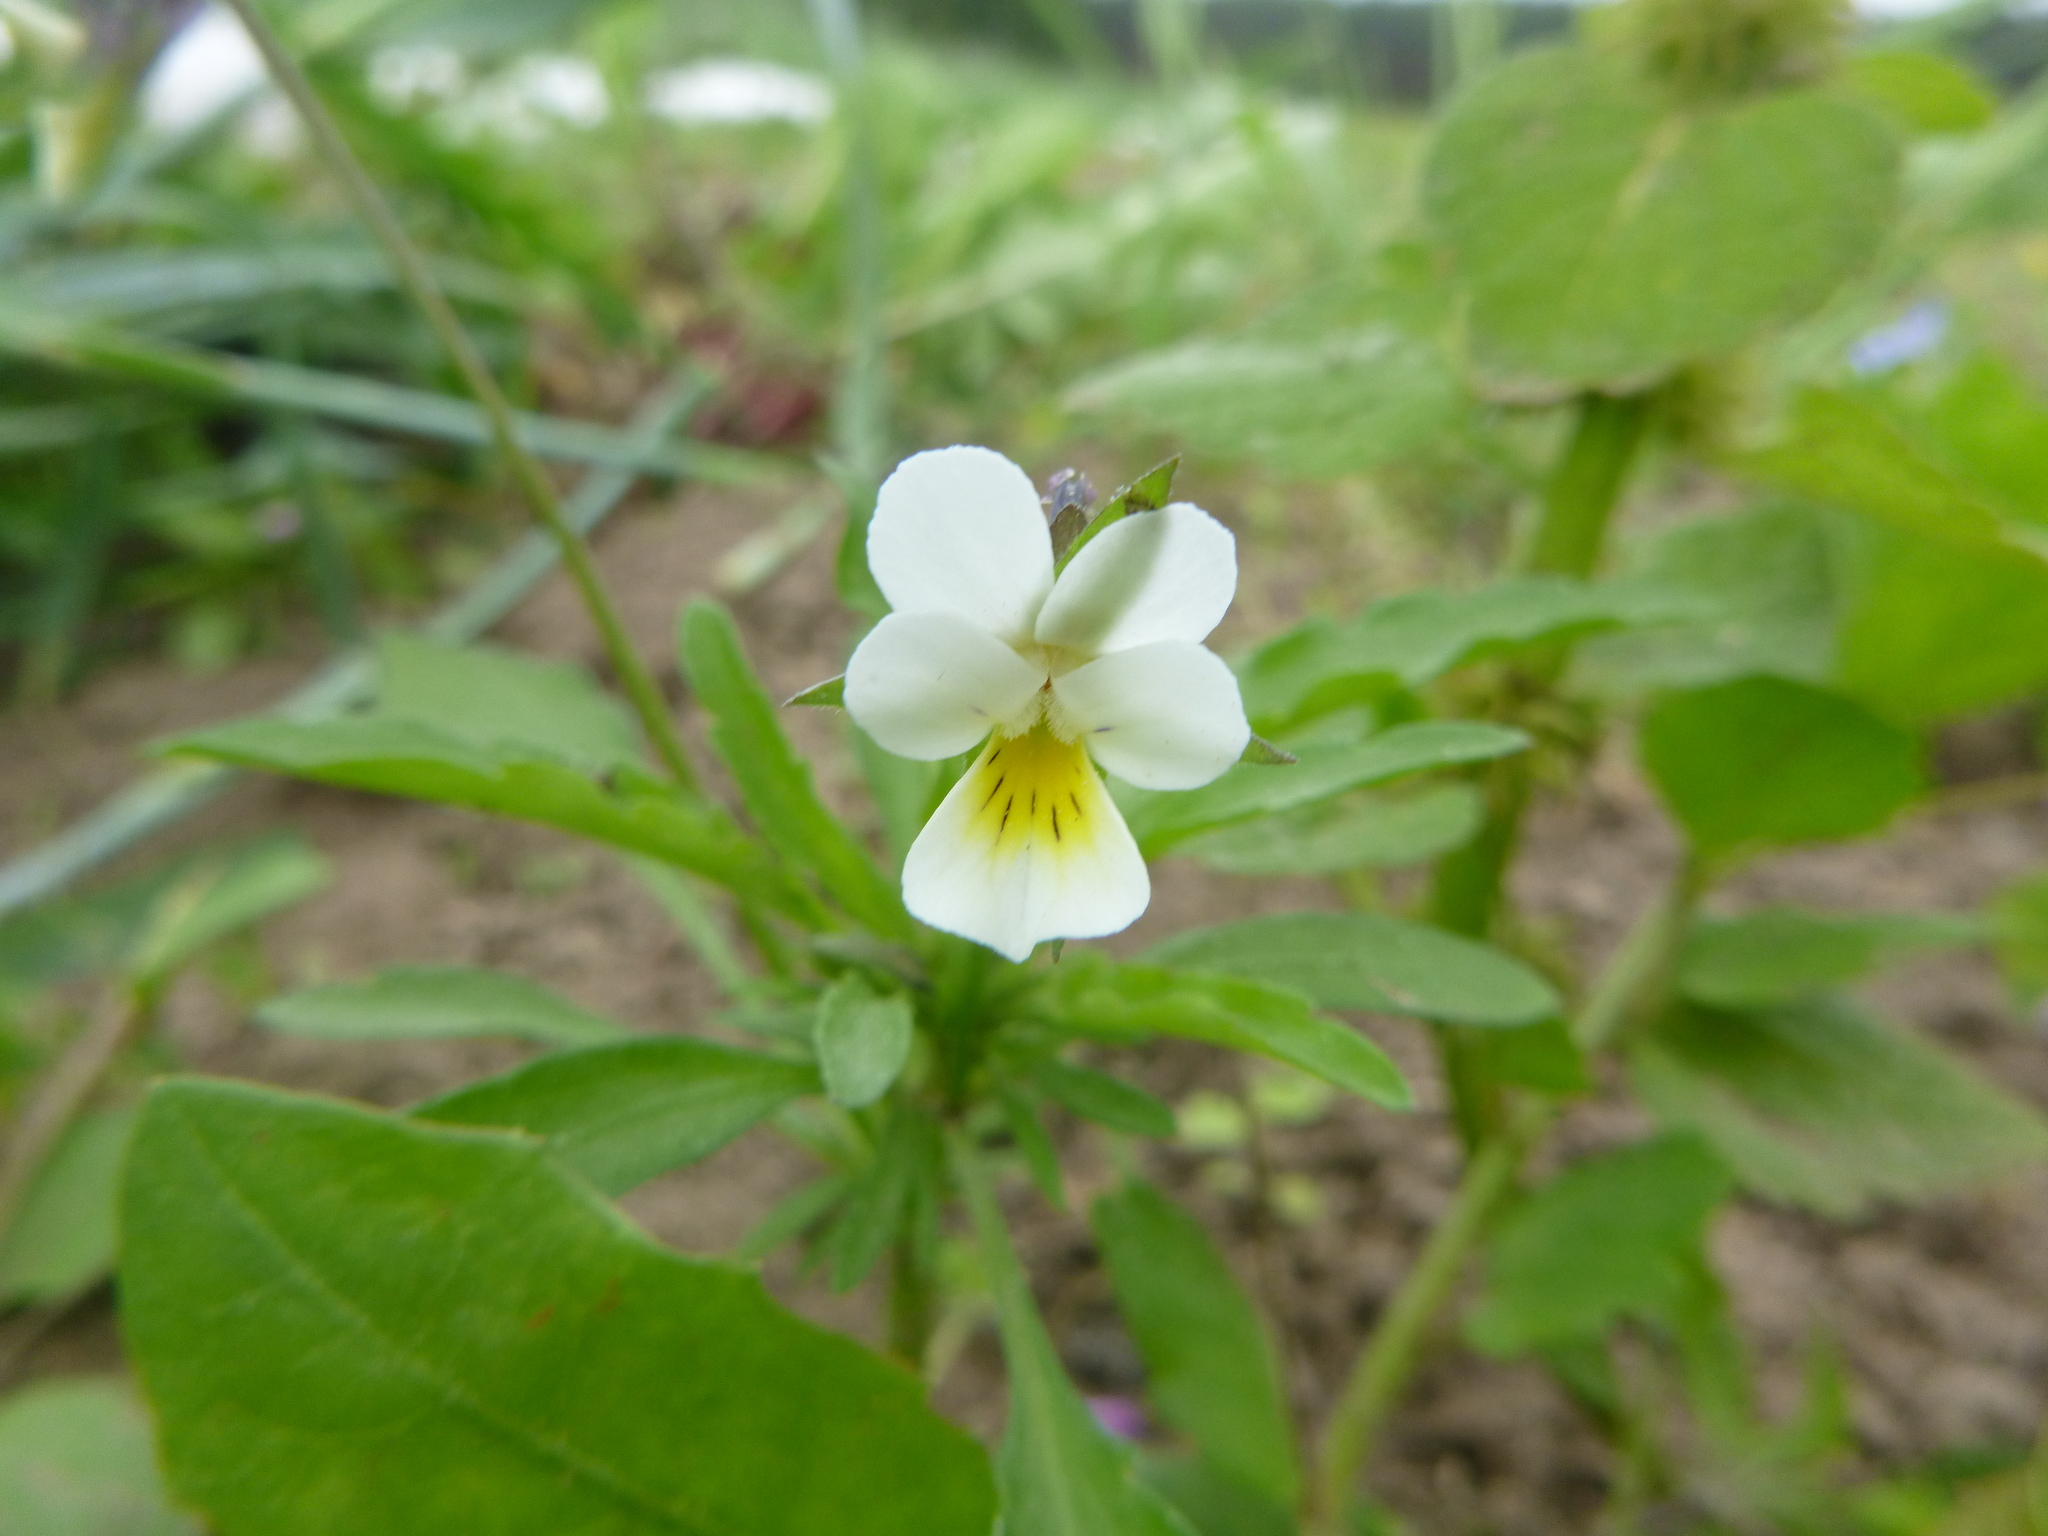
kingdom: Plantae
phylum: Tracheophyta
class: Magnoliopsida
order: Malpighiales
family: Violaceae
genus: Viola
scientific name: Viola arvensis
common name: Field pansy
